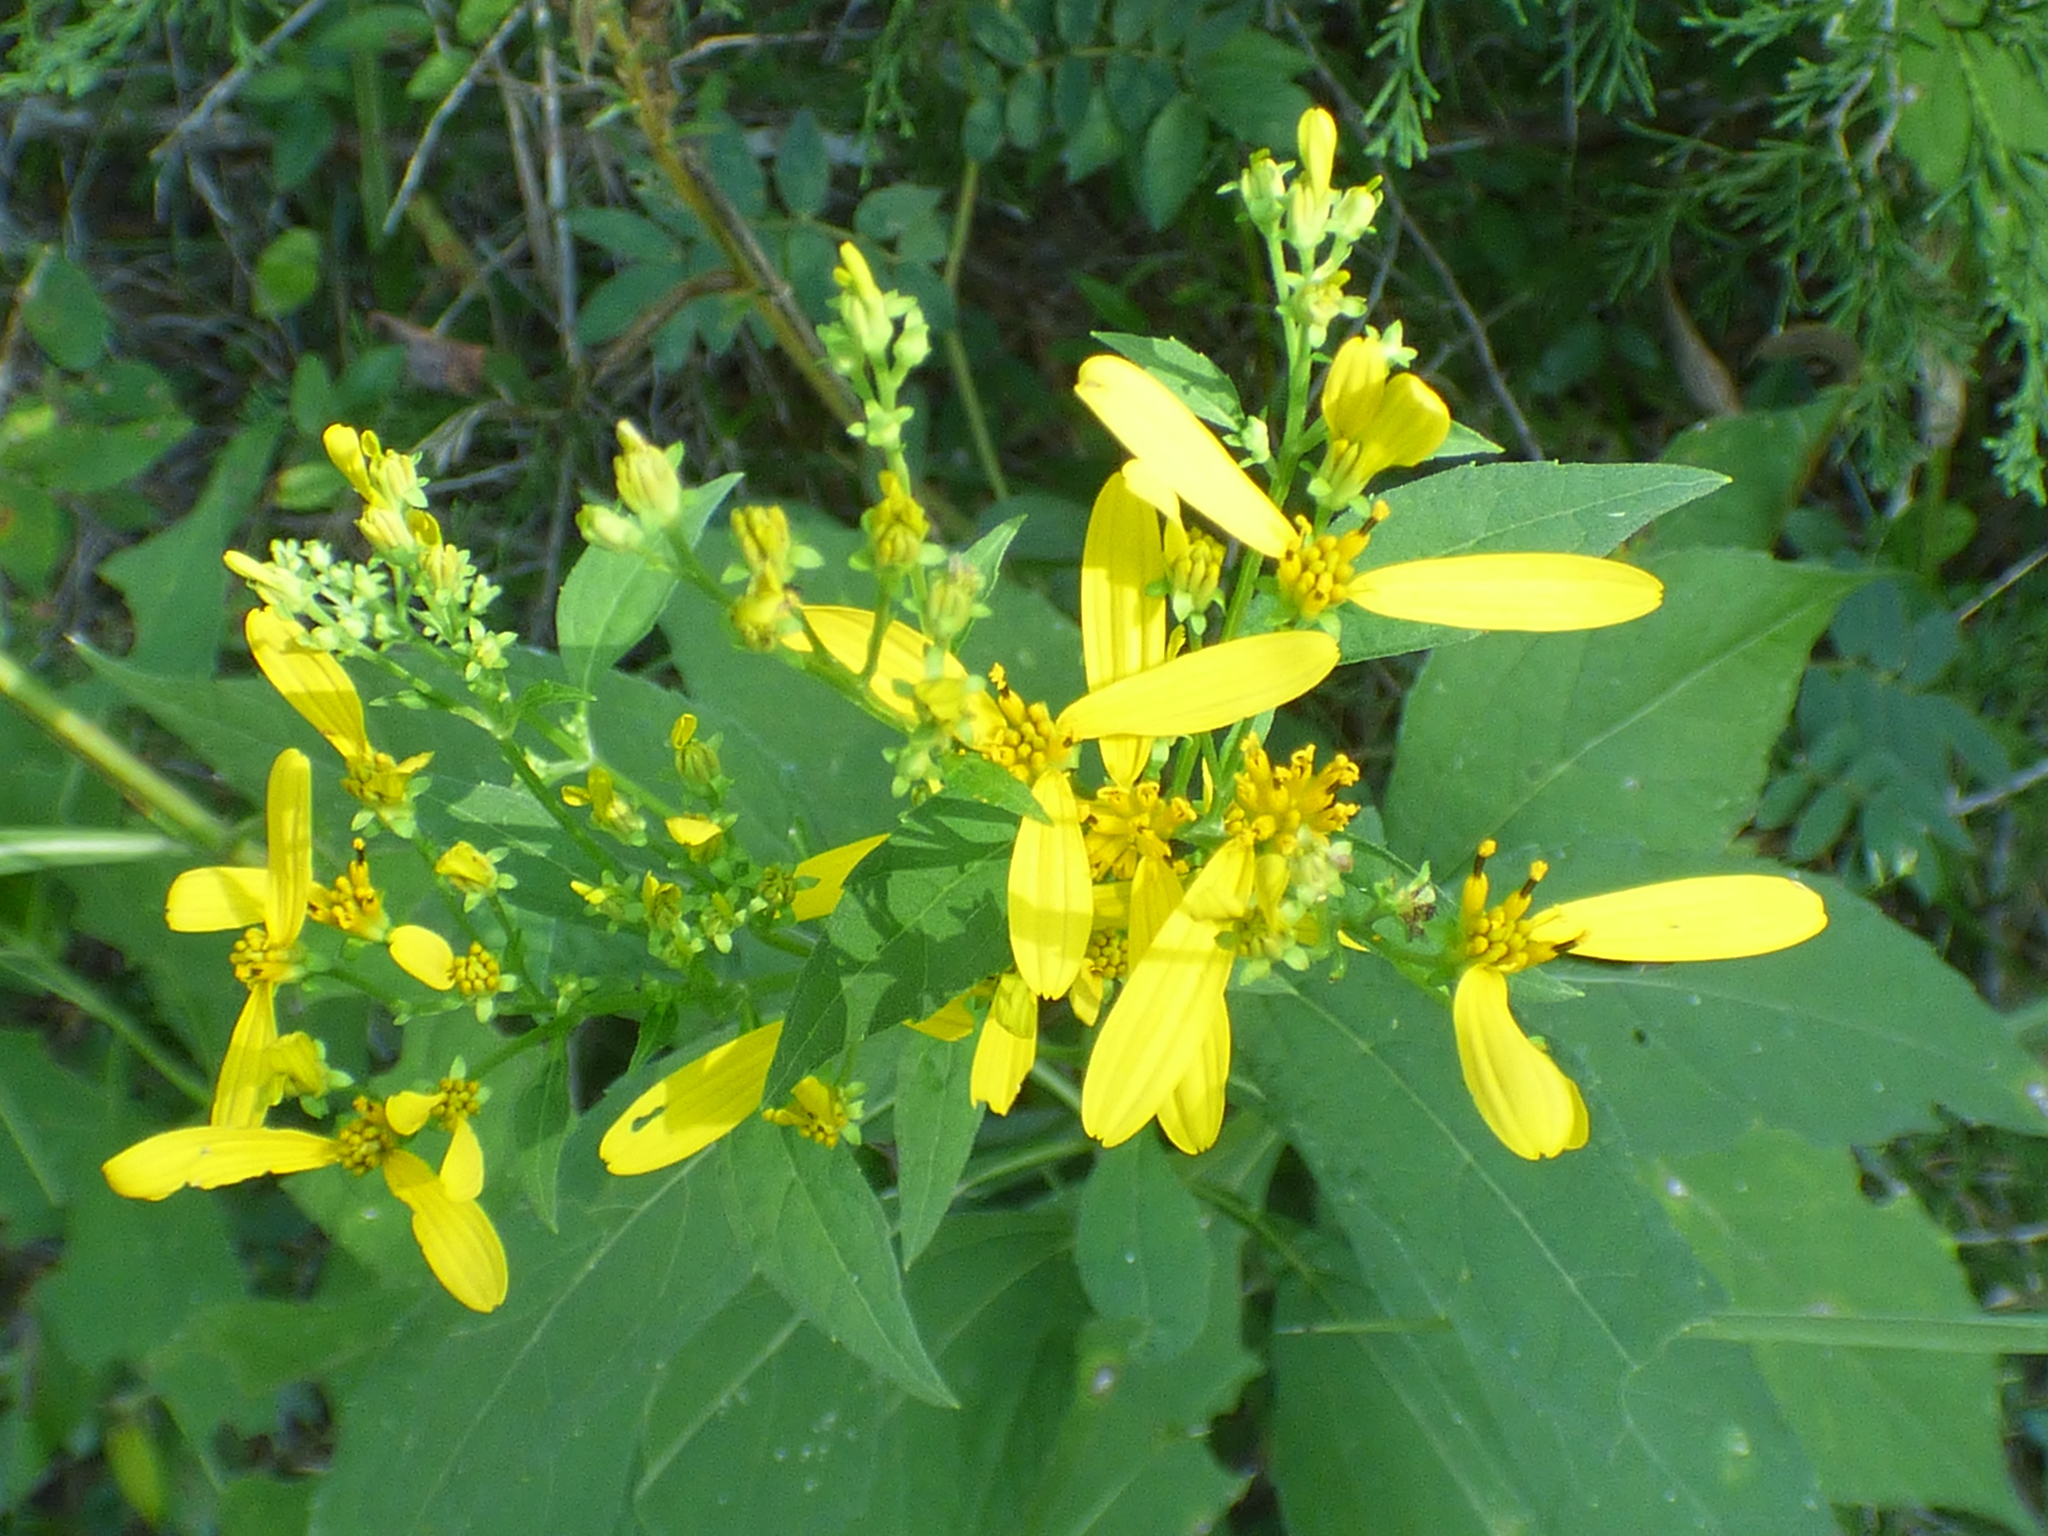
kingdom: Plantae
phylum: Tracheophyta
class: Magnoliopsida
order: Asterales
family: Asteraceae
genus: Verbesina
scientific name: Verbesina occidentalis
